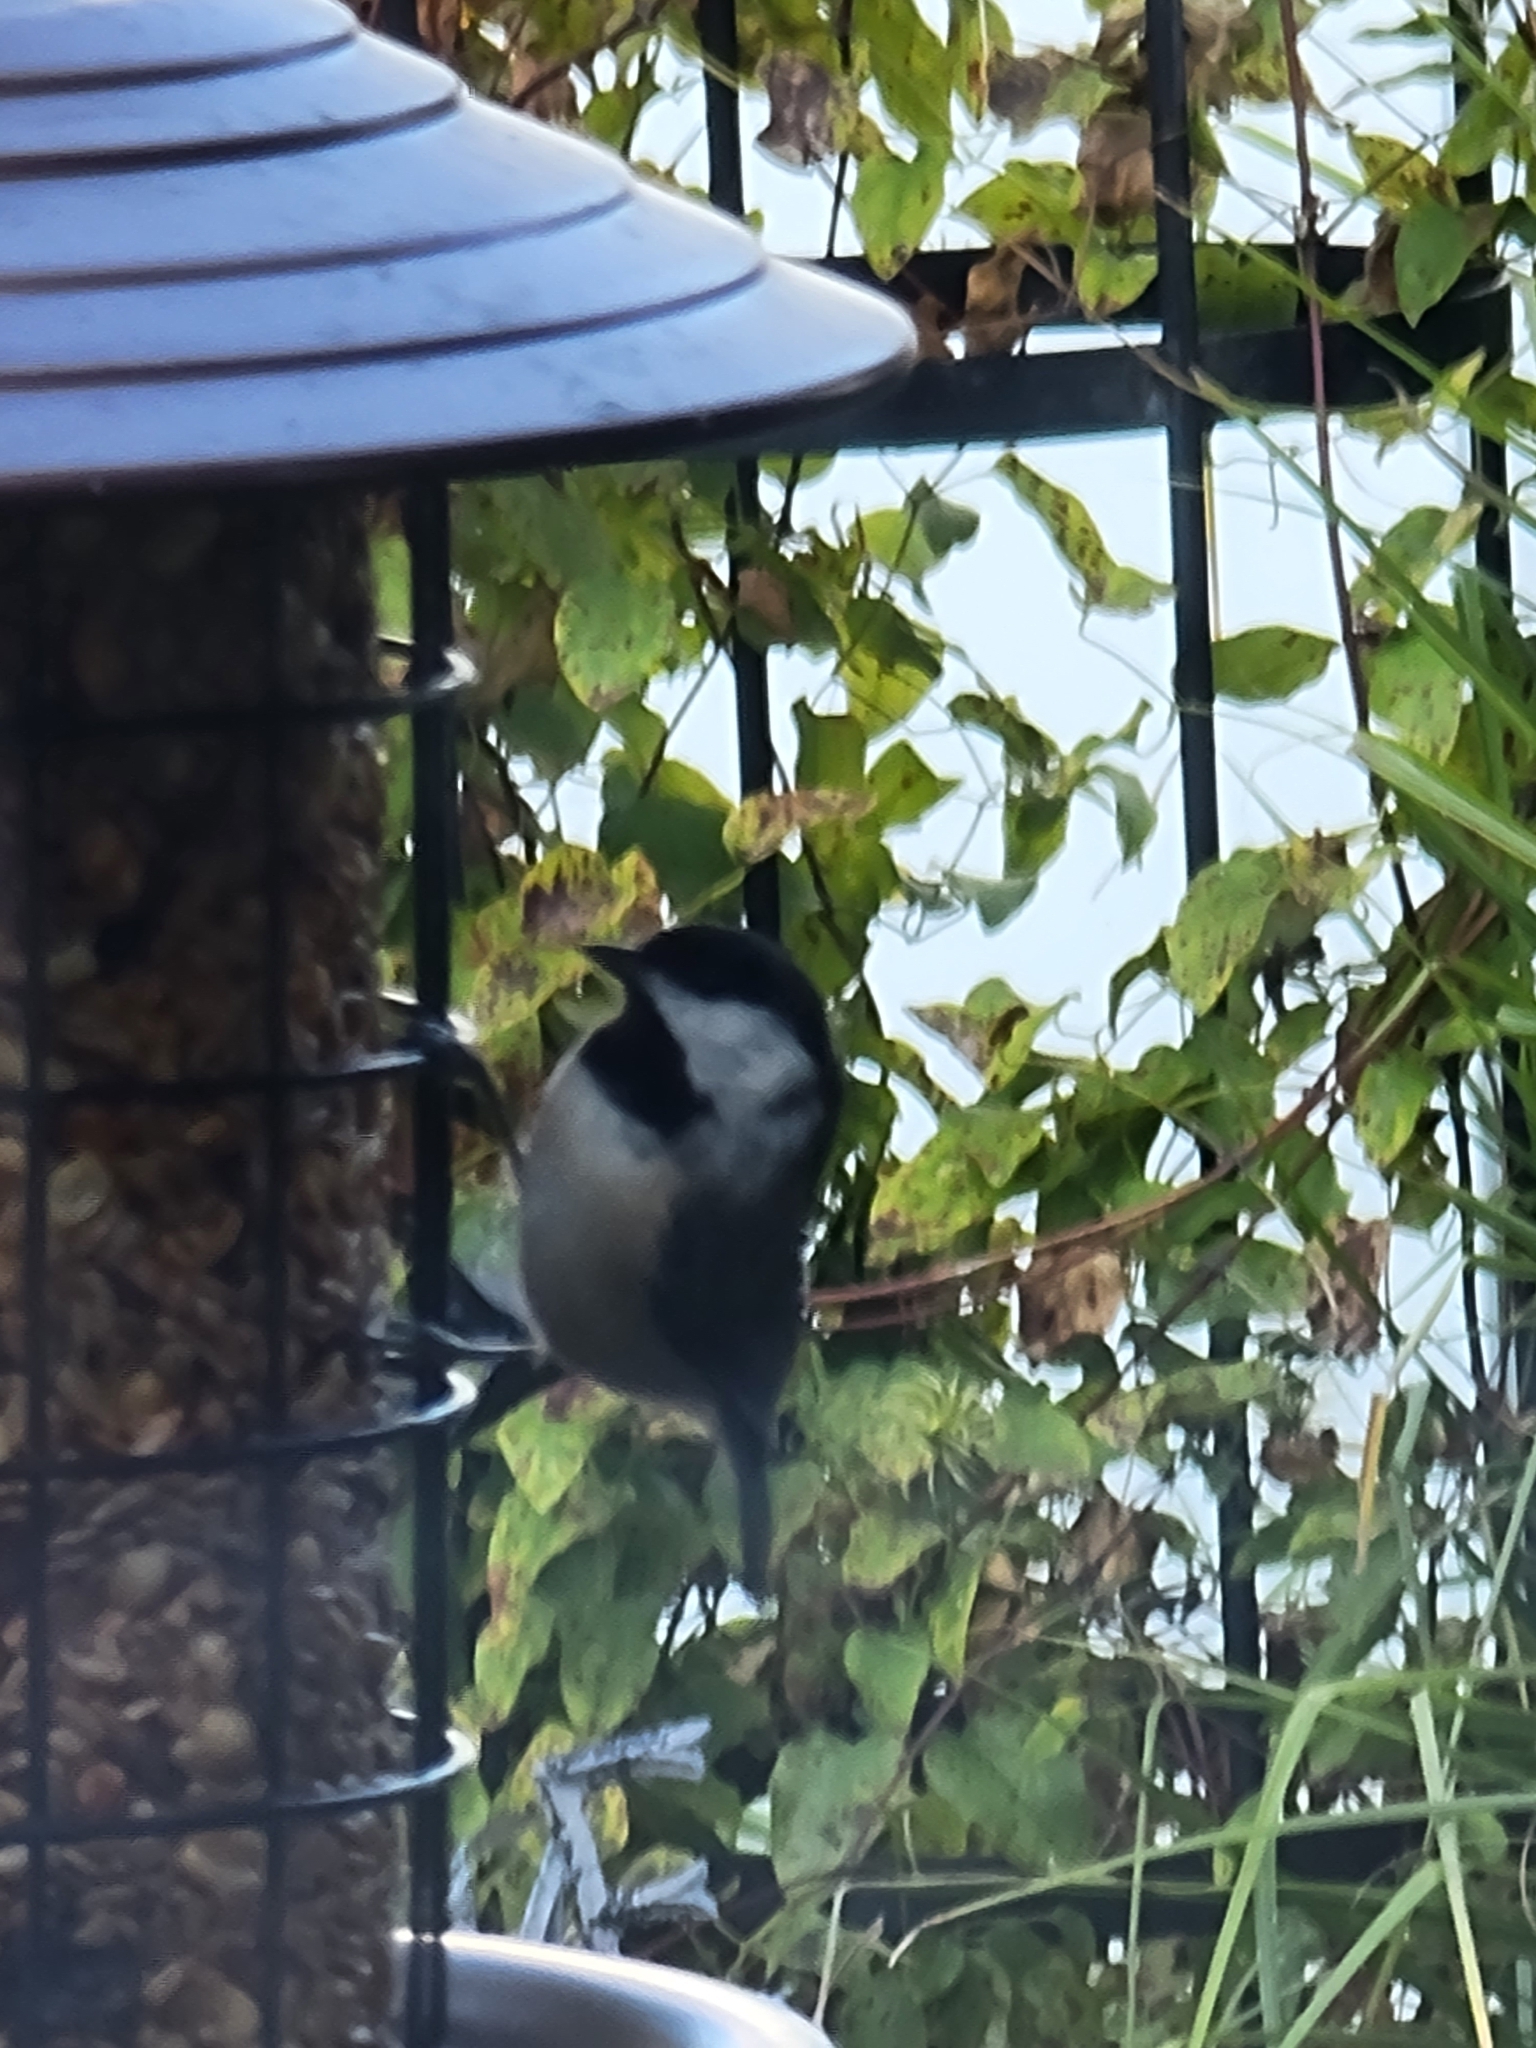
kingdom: Animalia
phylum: Chordata
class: Aves
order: Passeriformes
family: Paridae
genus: Poecile
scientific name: Poecile carolinensis
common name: Carolina chickadee
